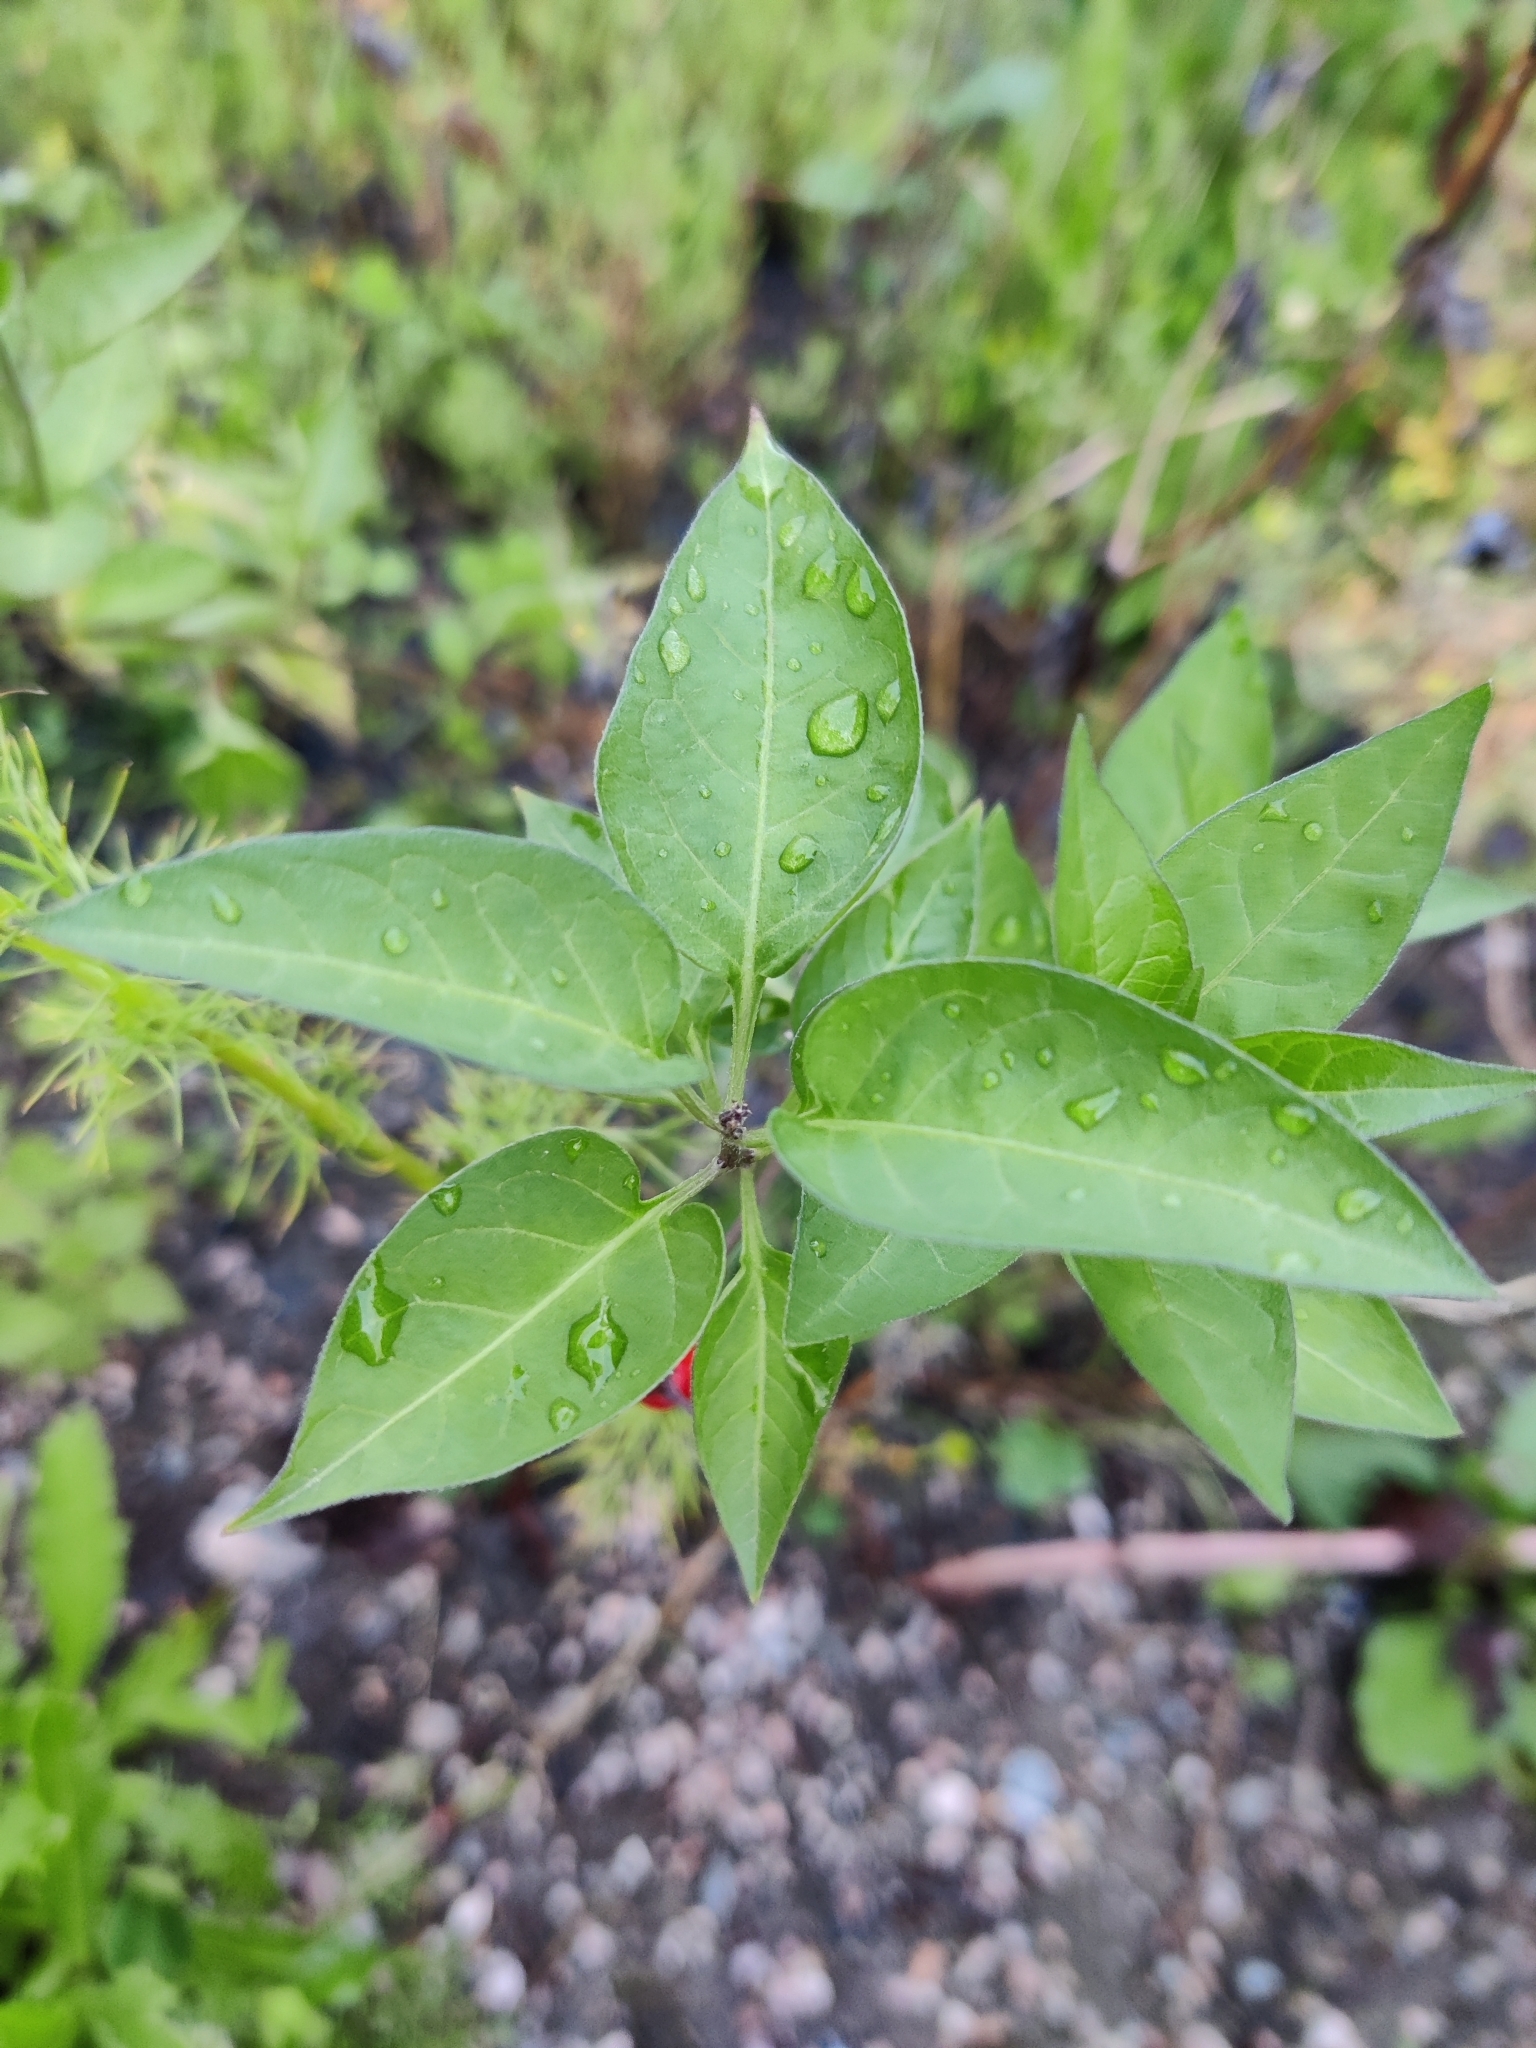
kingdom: Plantae
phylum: Tracheophyta
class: Magnoliopsida
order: Solanales
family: Solanaceae
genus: Solanum
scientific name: Solanum dulcamara
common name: Climbing nightshade
